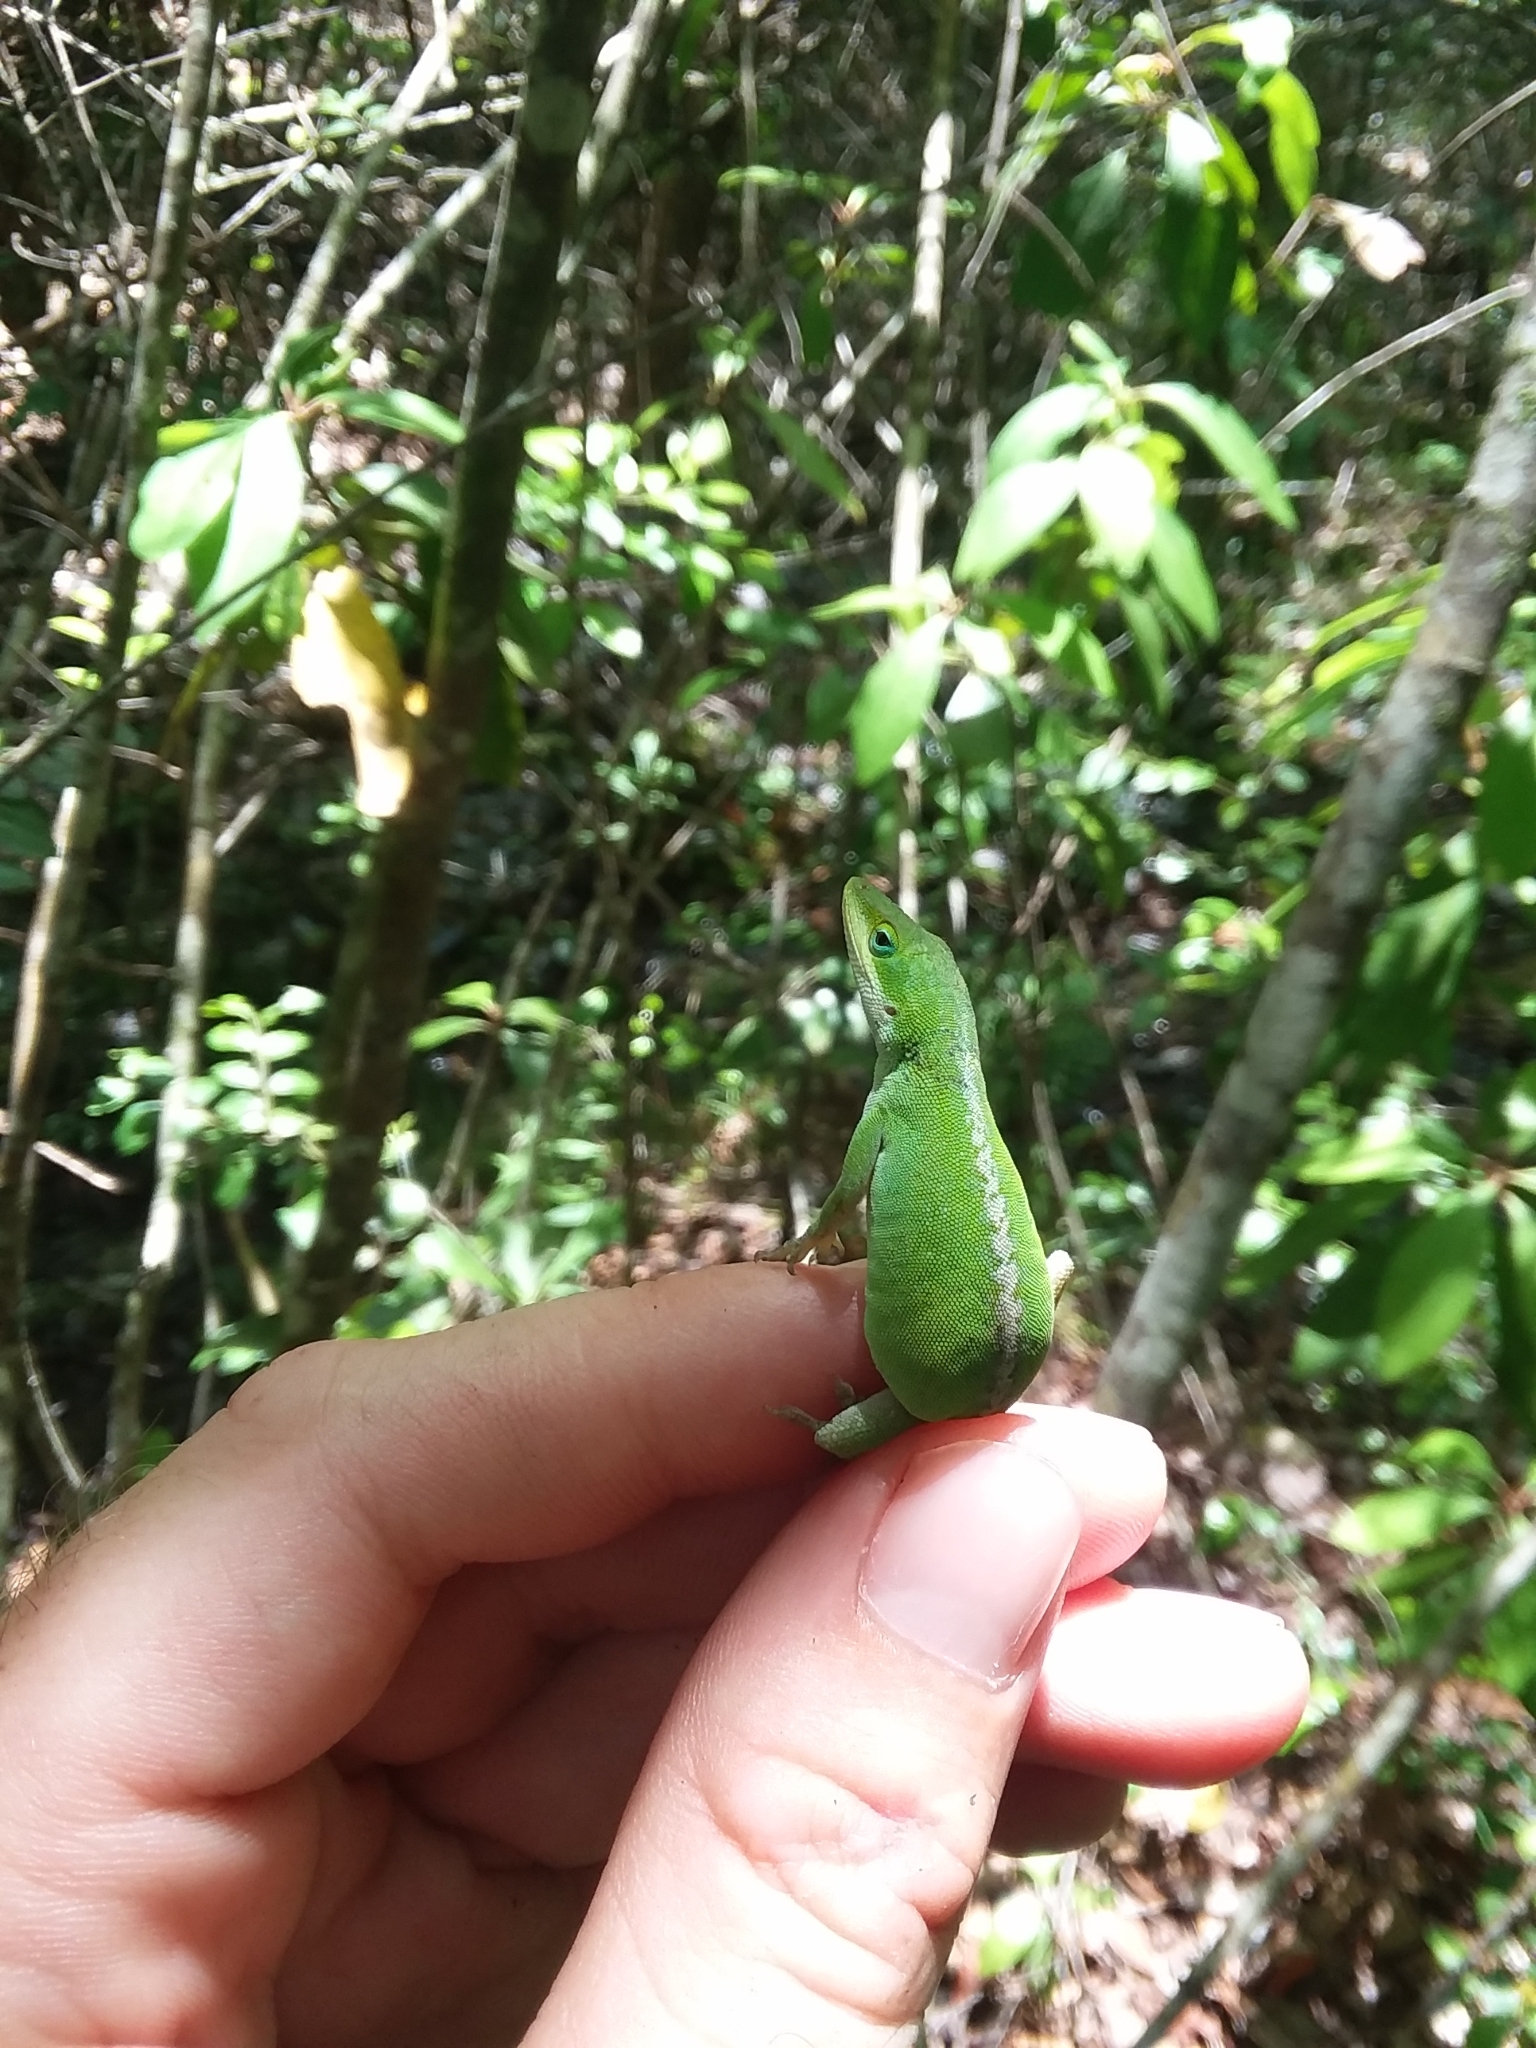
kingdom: Animalia
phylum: Chordata
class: Squamata
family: Dactyloidae
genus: Anolis
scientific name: Anolis carolinensis
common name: Green anole
